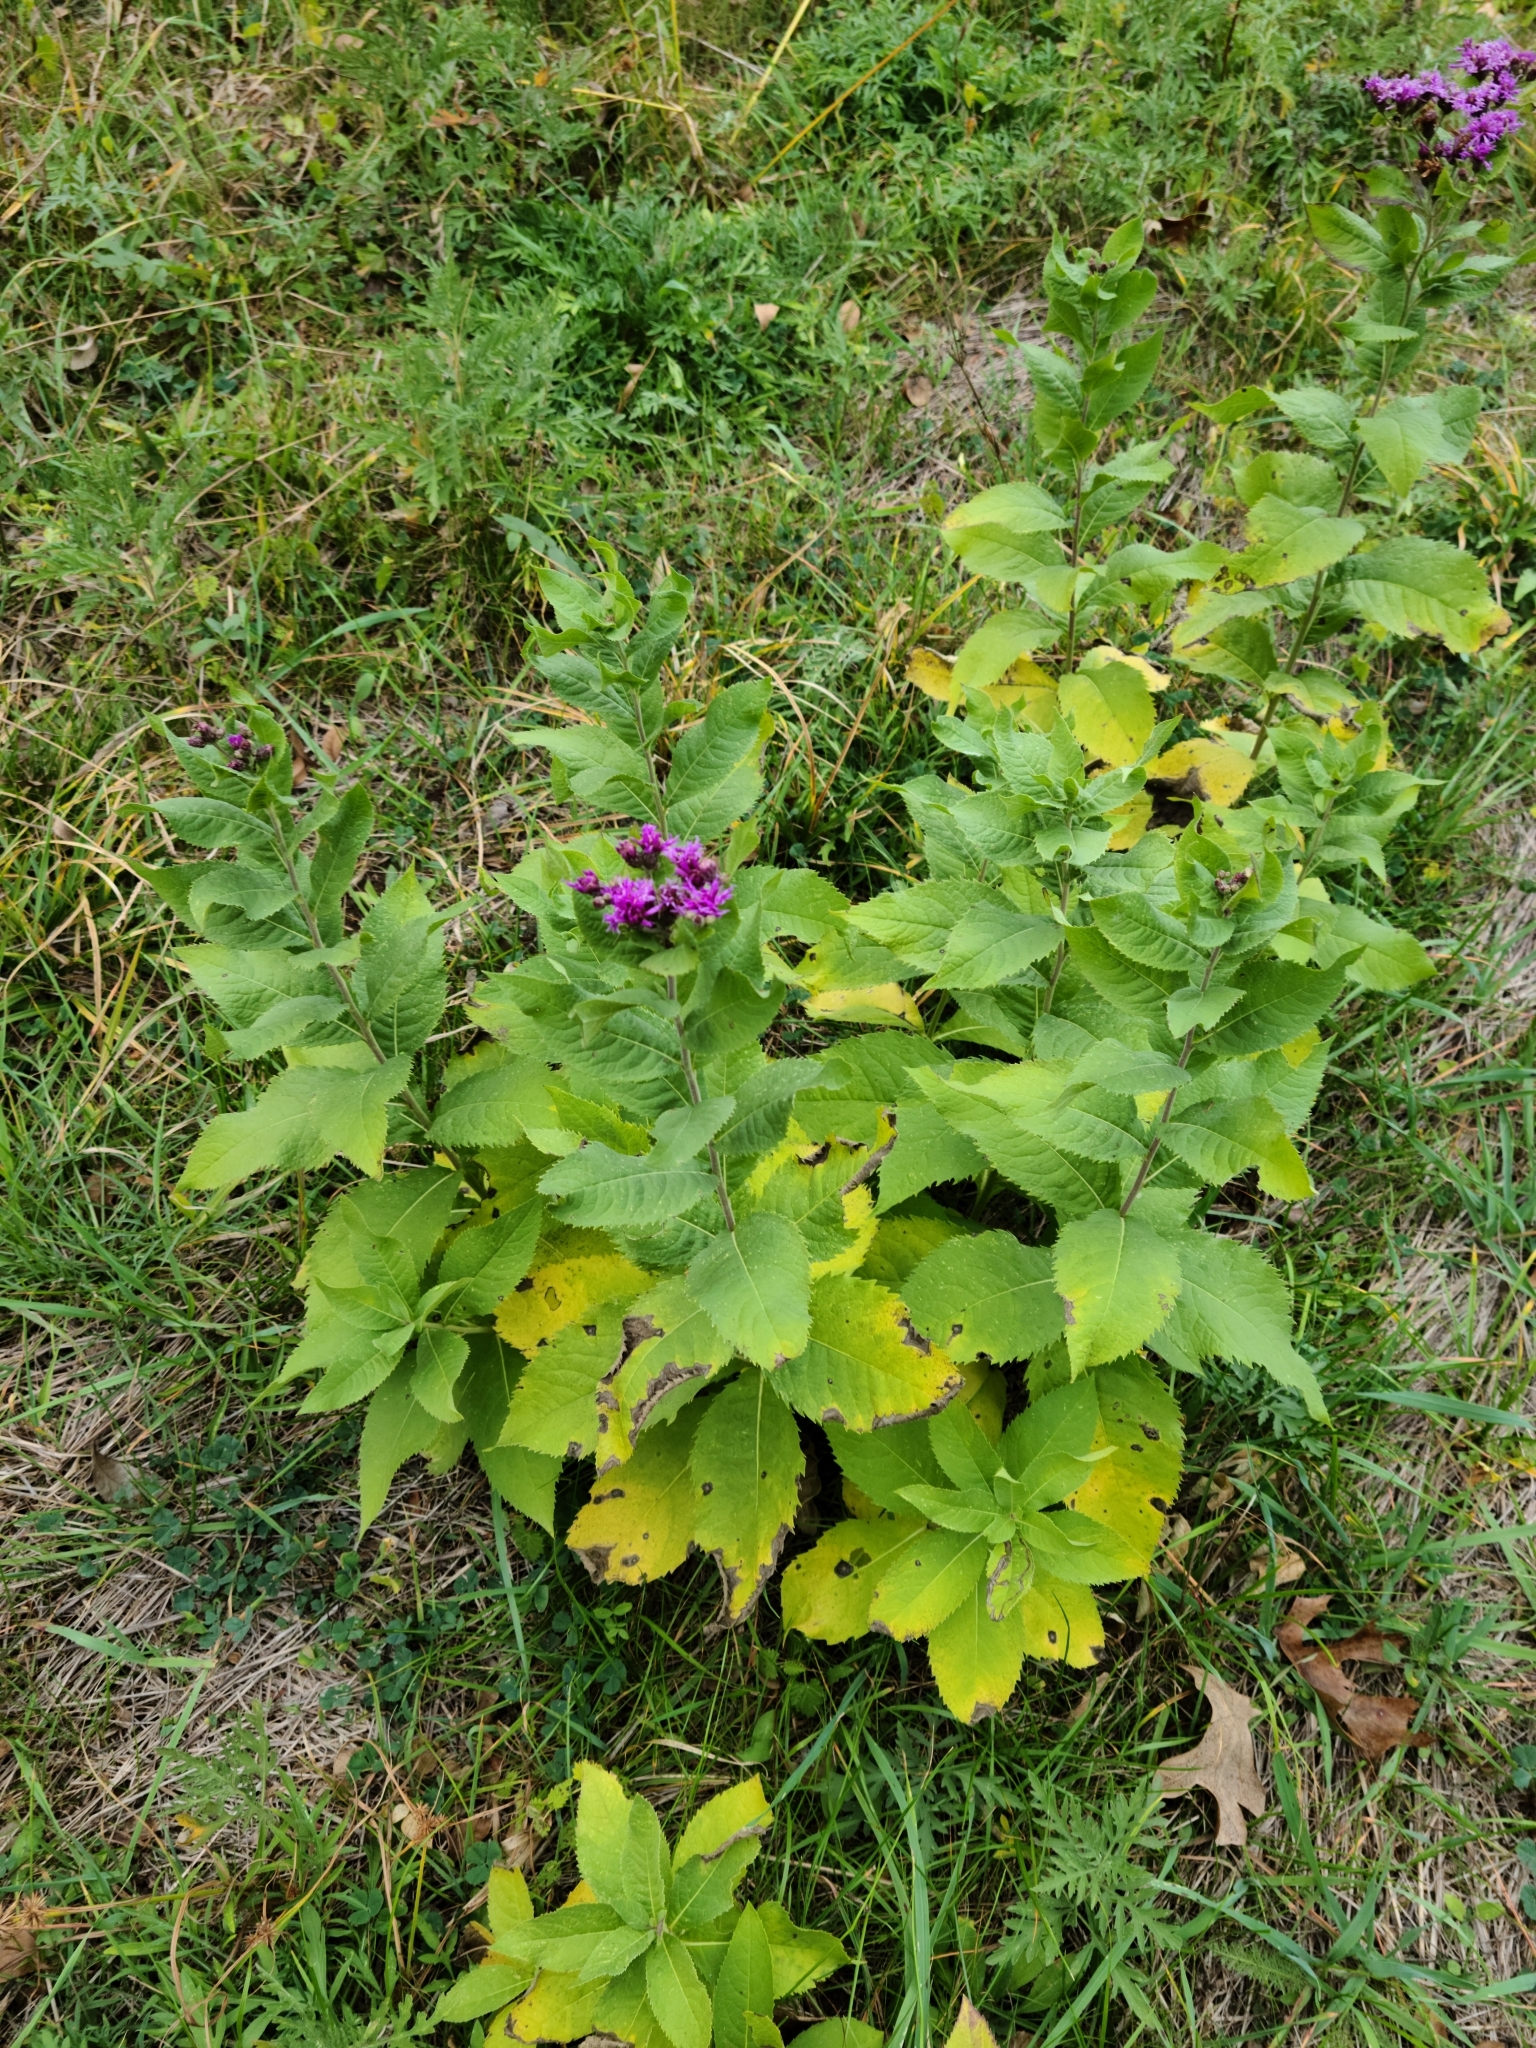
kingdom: Plantae
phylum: Tracheophyta
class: Magnoliopsida
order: Asterales
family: Asteraceae
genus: Vernonia
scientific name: Vernonia baldwinii
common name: Western ironweed
